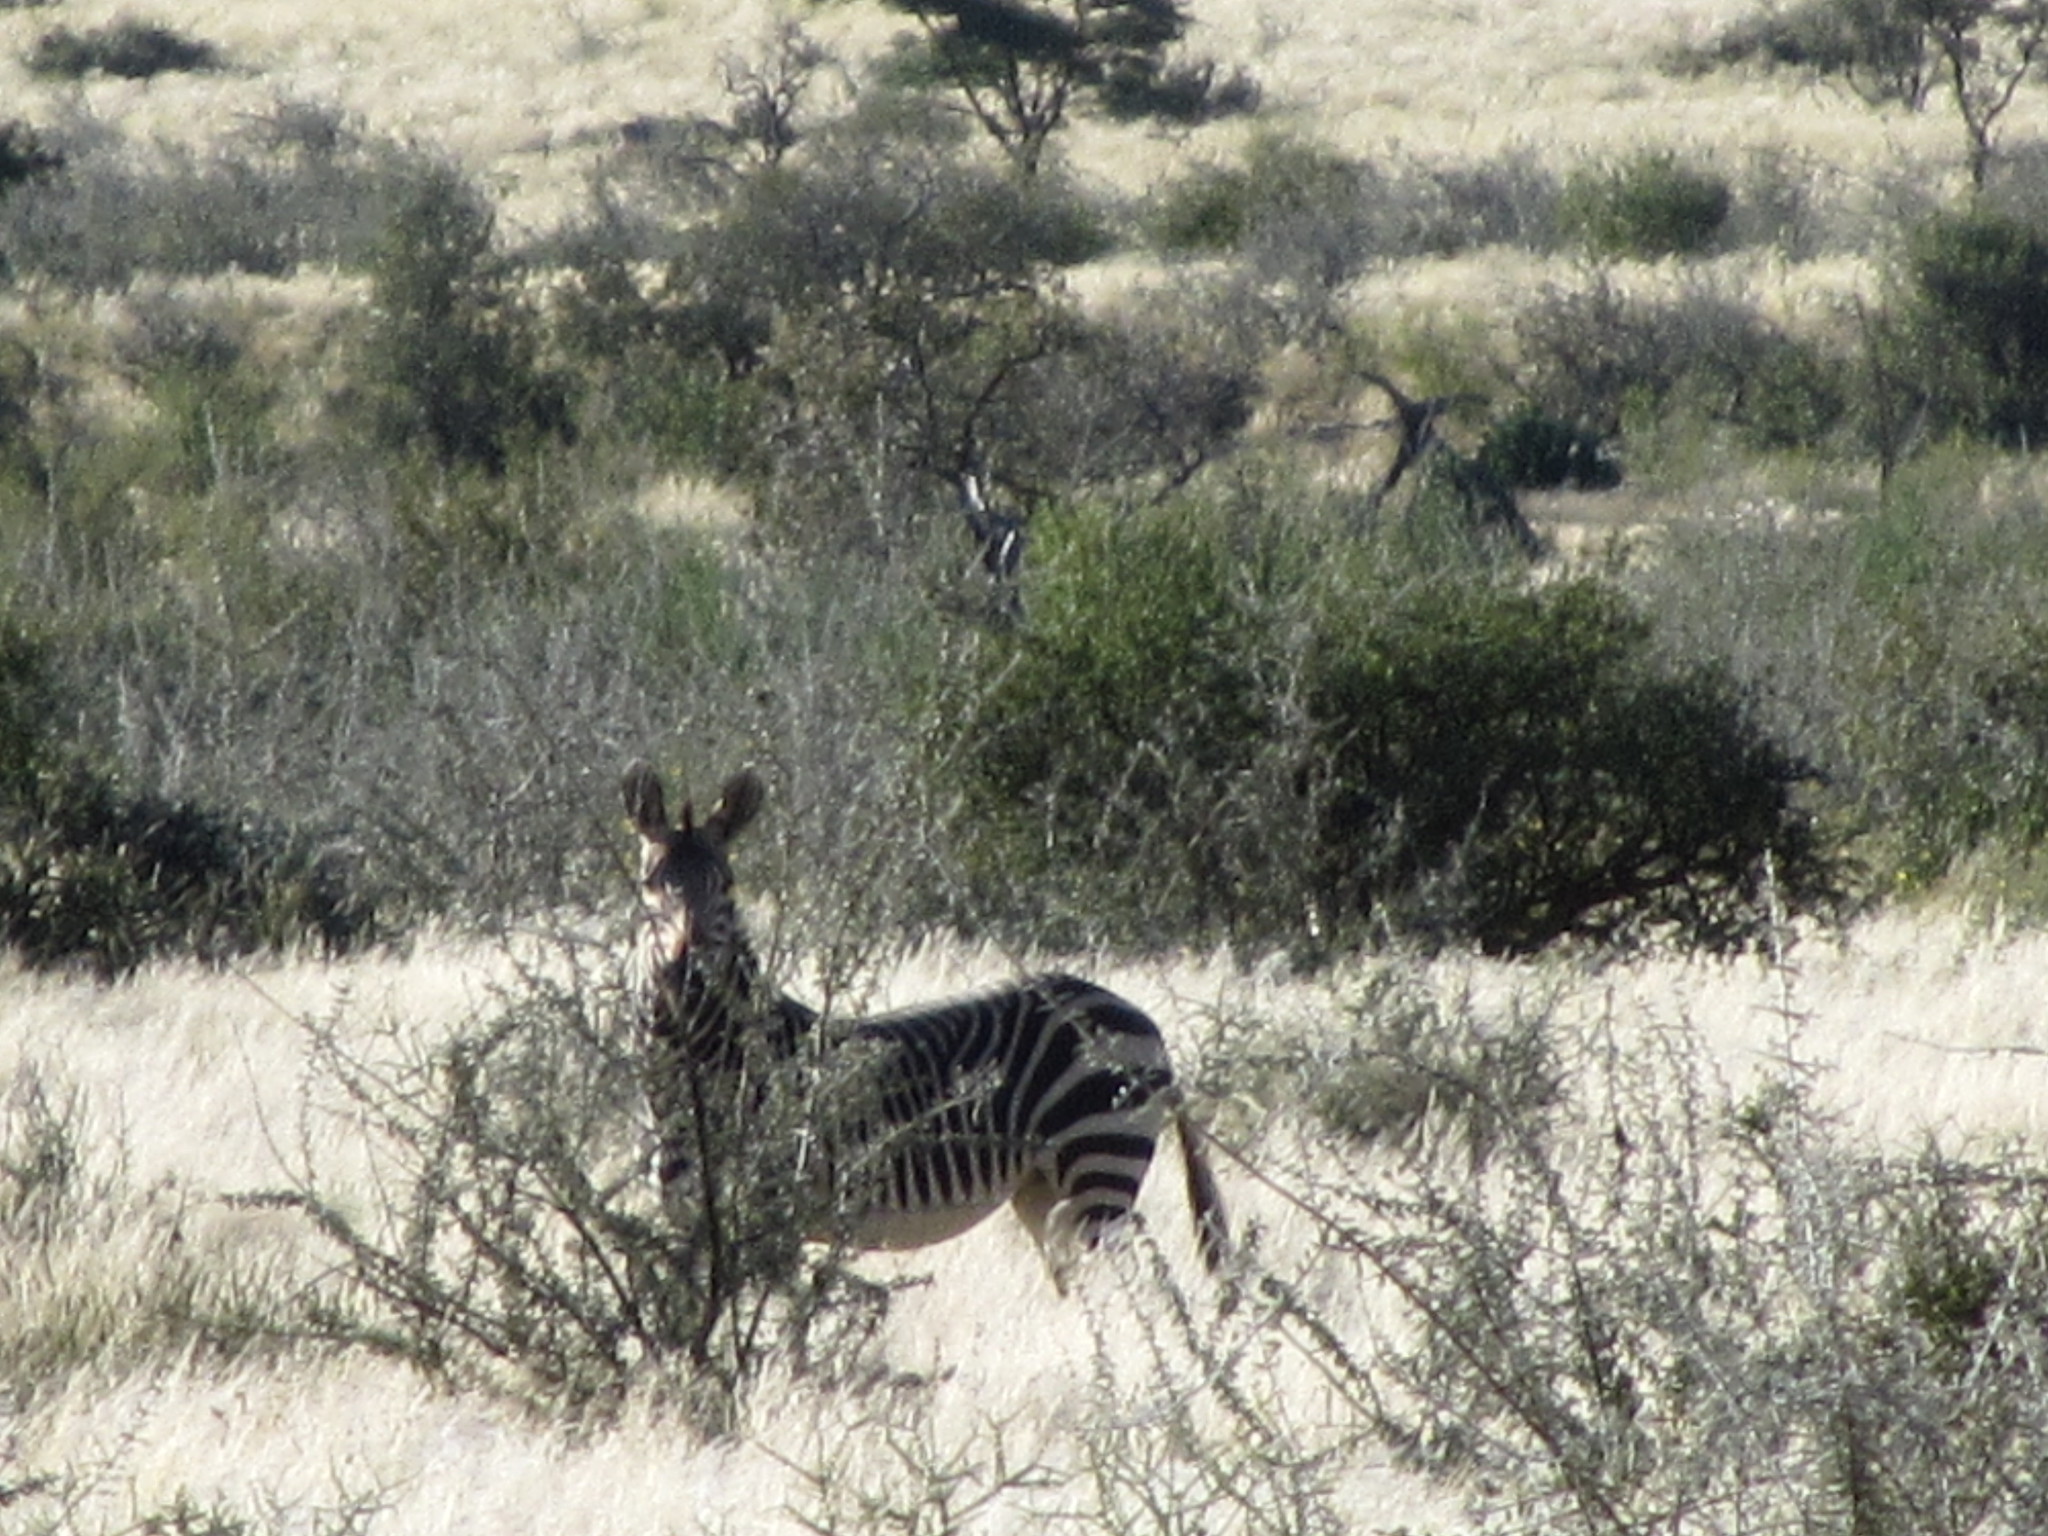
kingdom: Animalia
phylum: Chordata
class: Mammalia
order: Perissodactyla
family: Equidae
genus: Equus
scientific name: Equus hartmannae
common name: Hartmann's mountain zebra
